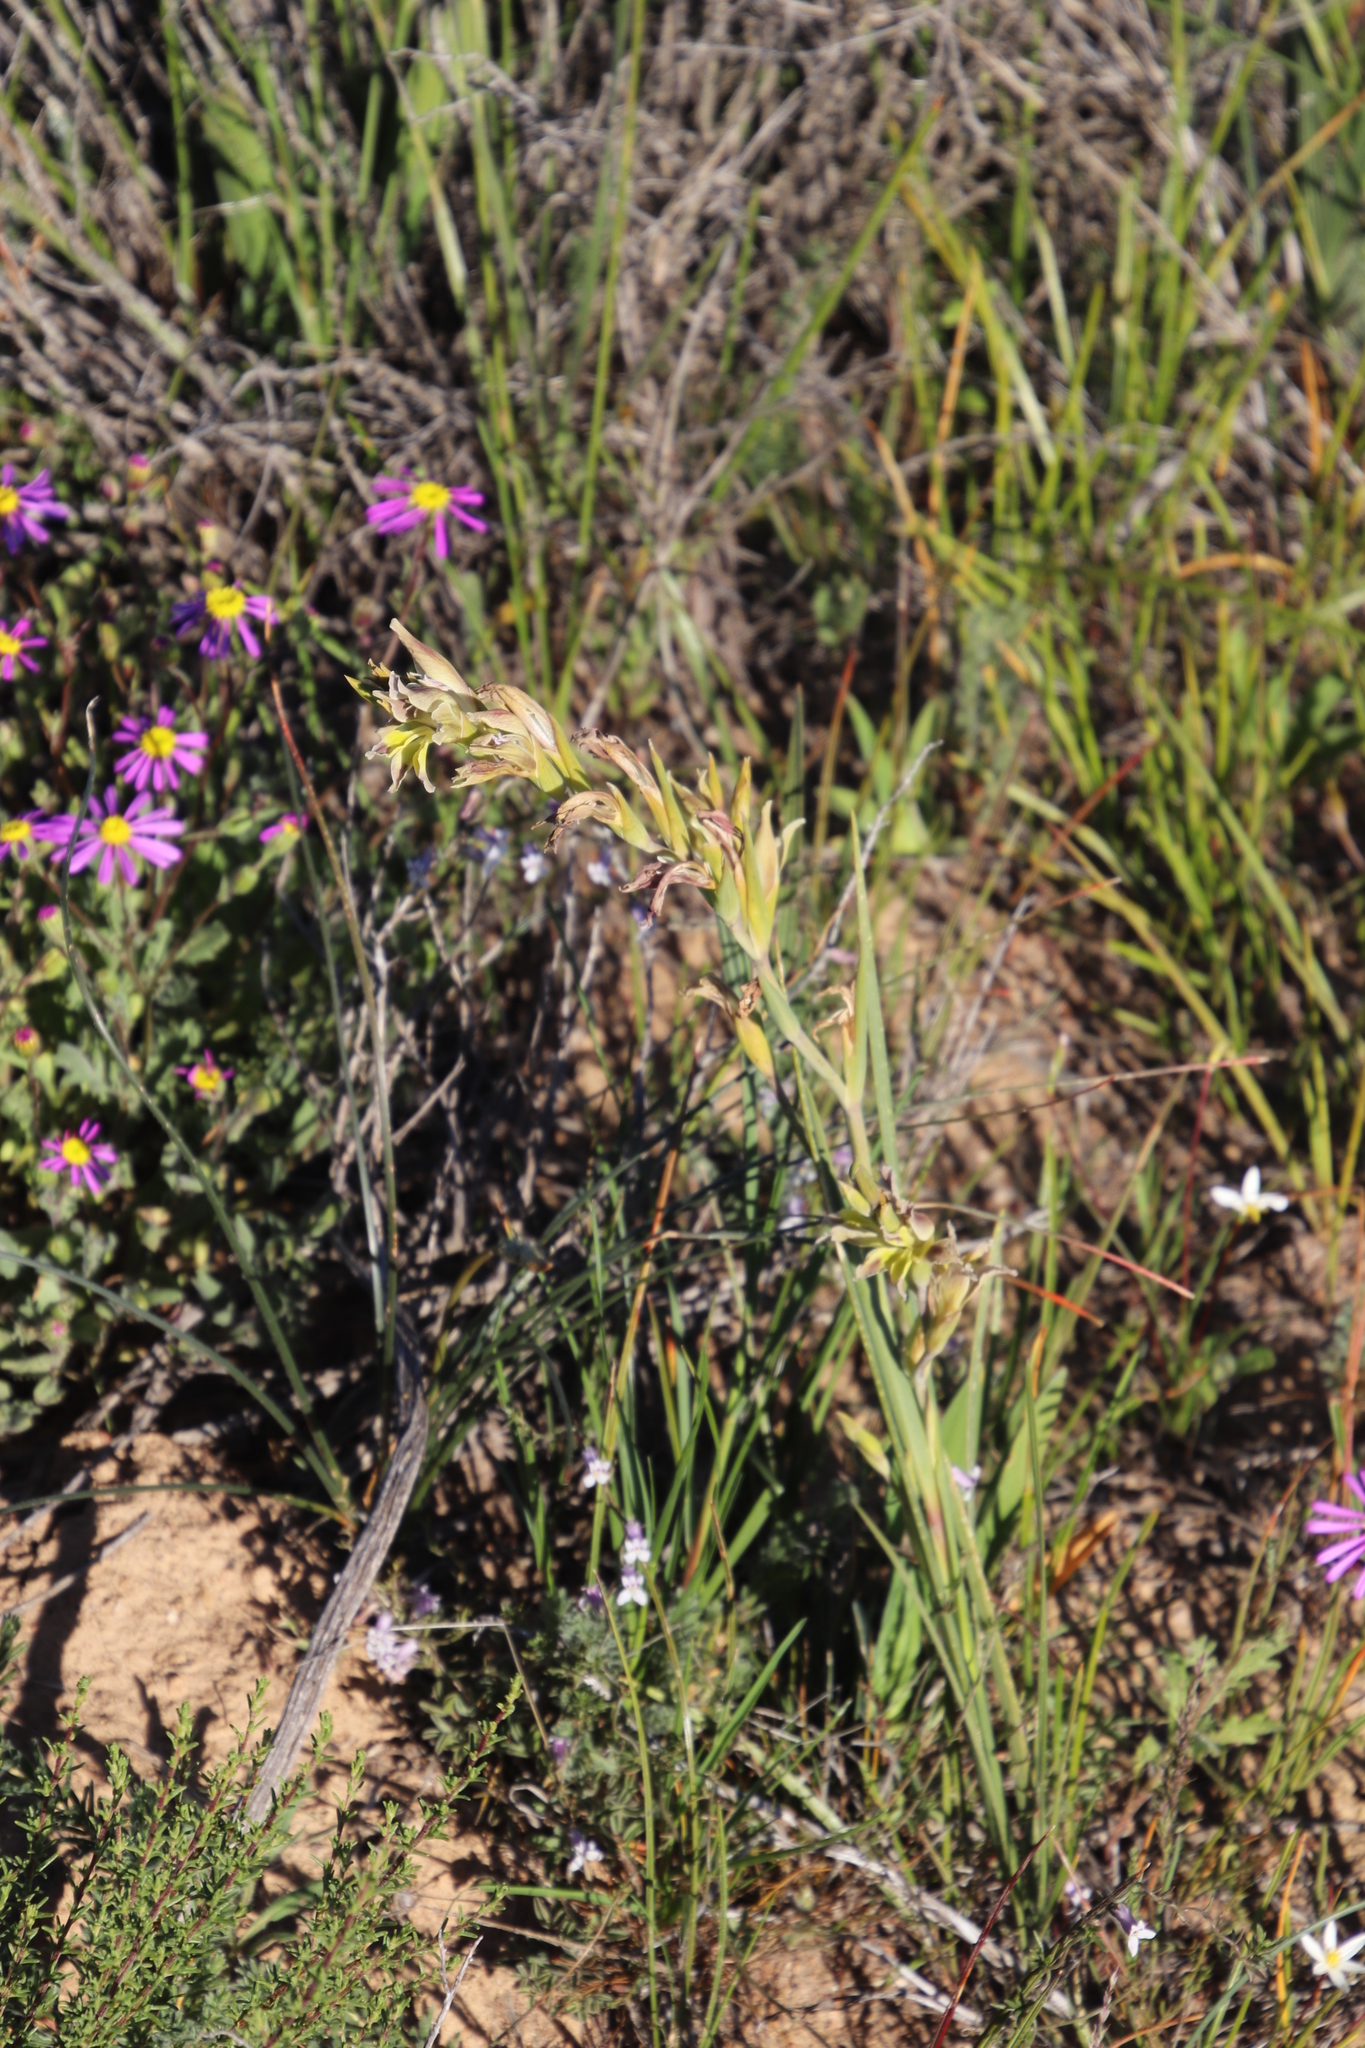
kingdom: Plantae
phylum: Tracheophyta
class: Liliopsida
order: Asparagales
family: Iridaceae
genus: Gladiolus
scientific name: Gladiolus venustus
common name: Purple kalkoentjie
